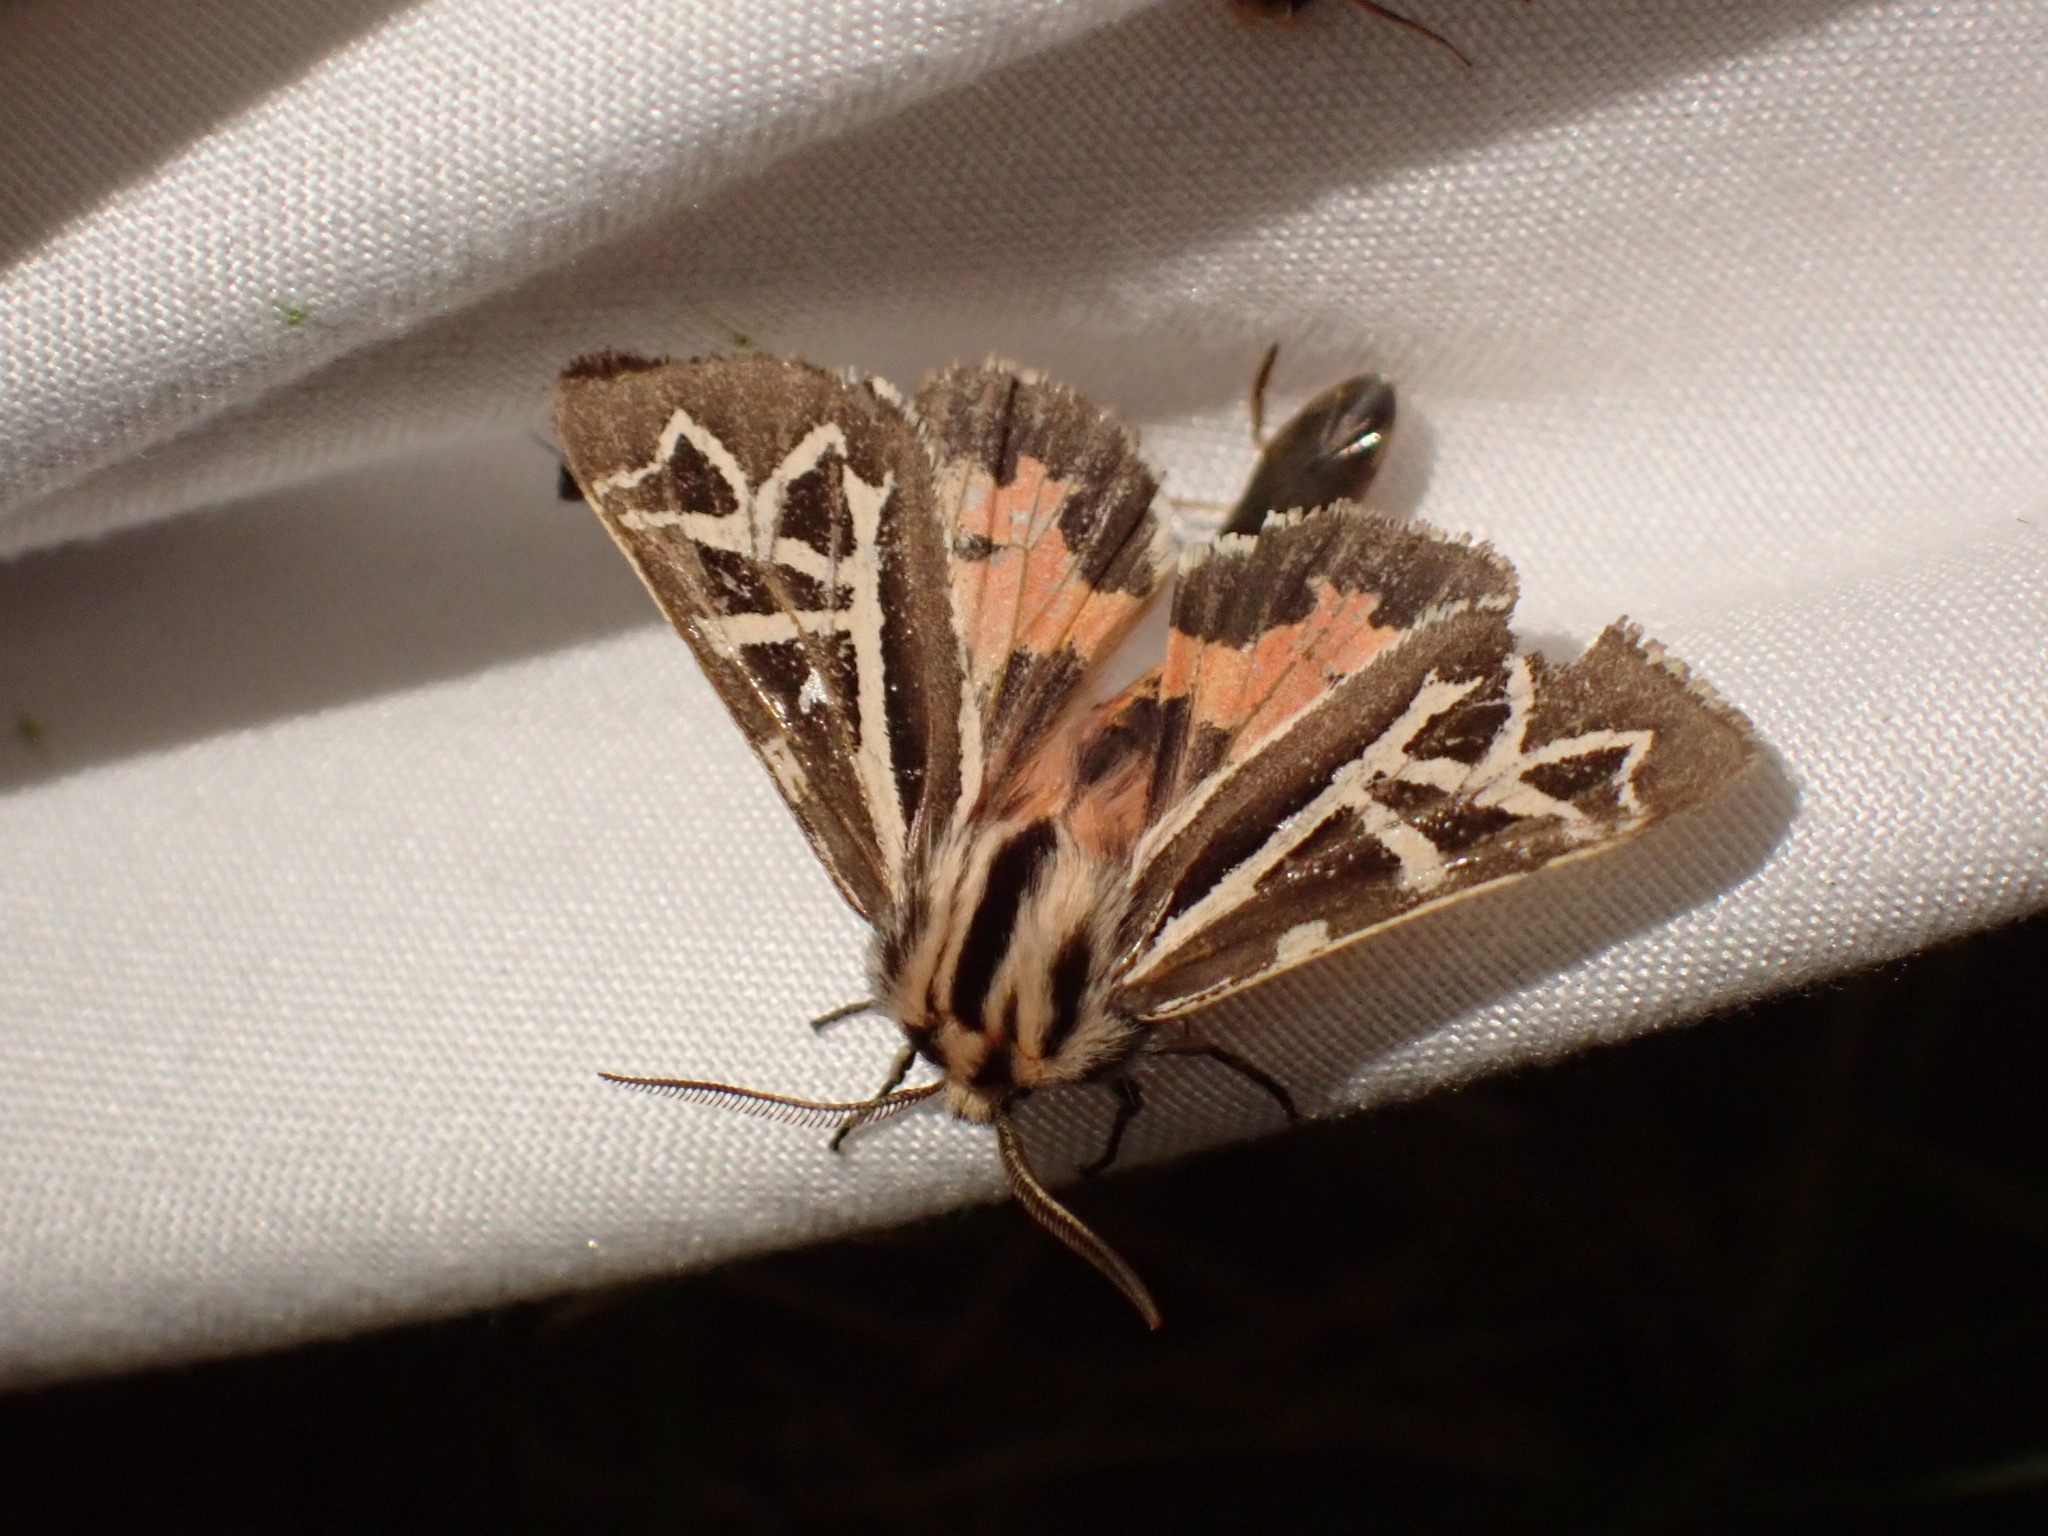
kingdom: Animalia
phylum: Arthropoda
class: Insecta
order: Lepidoptera
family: Erebidae
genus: Apantesis
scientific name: Apantesis
